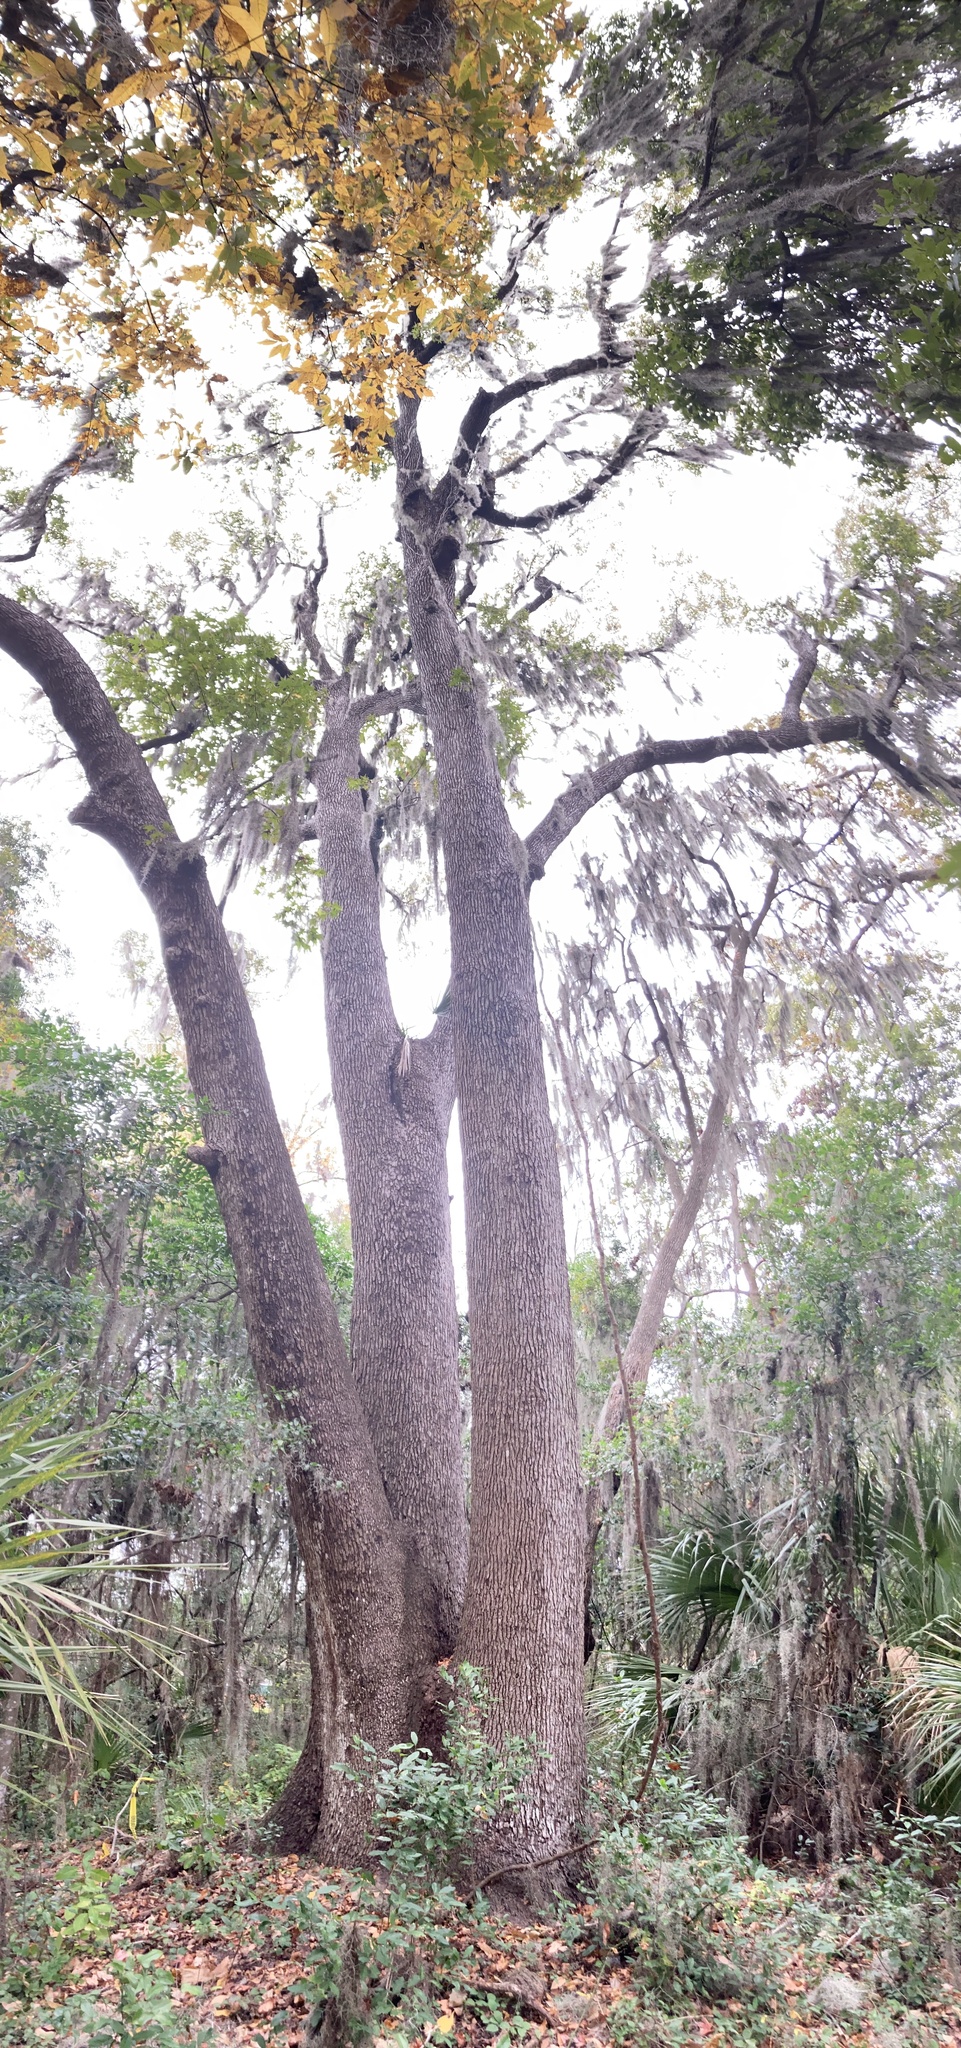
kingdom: Plantae
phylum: Tracheophyta
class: Magnoliopsida
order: Saxifragales
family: Altingiaceae
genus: Liquidambar
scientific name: Liquidambar styraciflua
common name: Sweet gum
